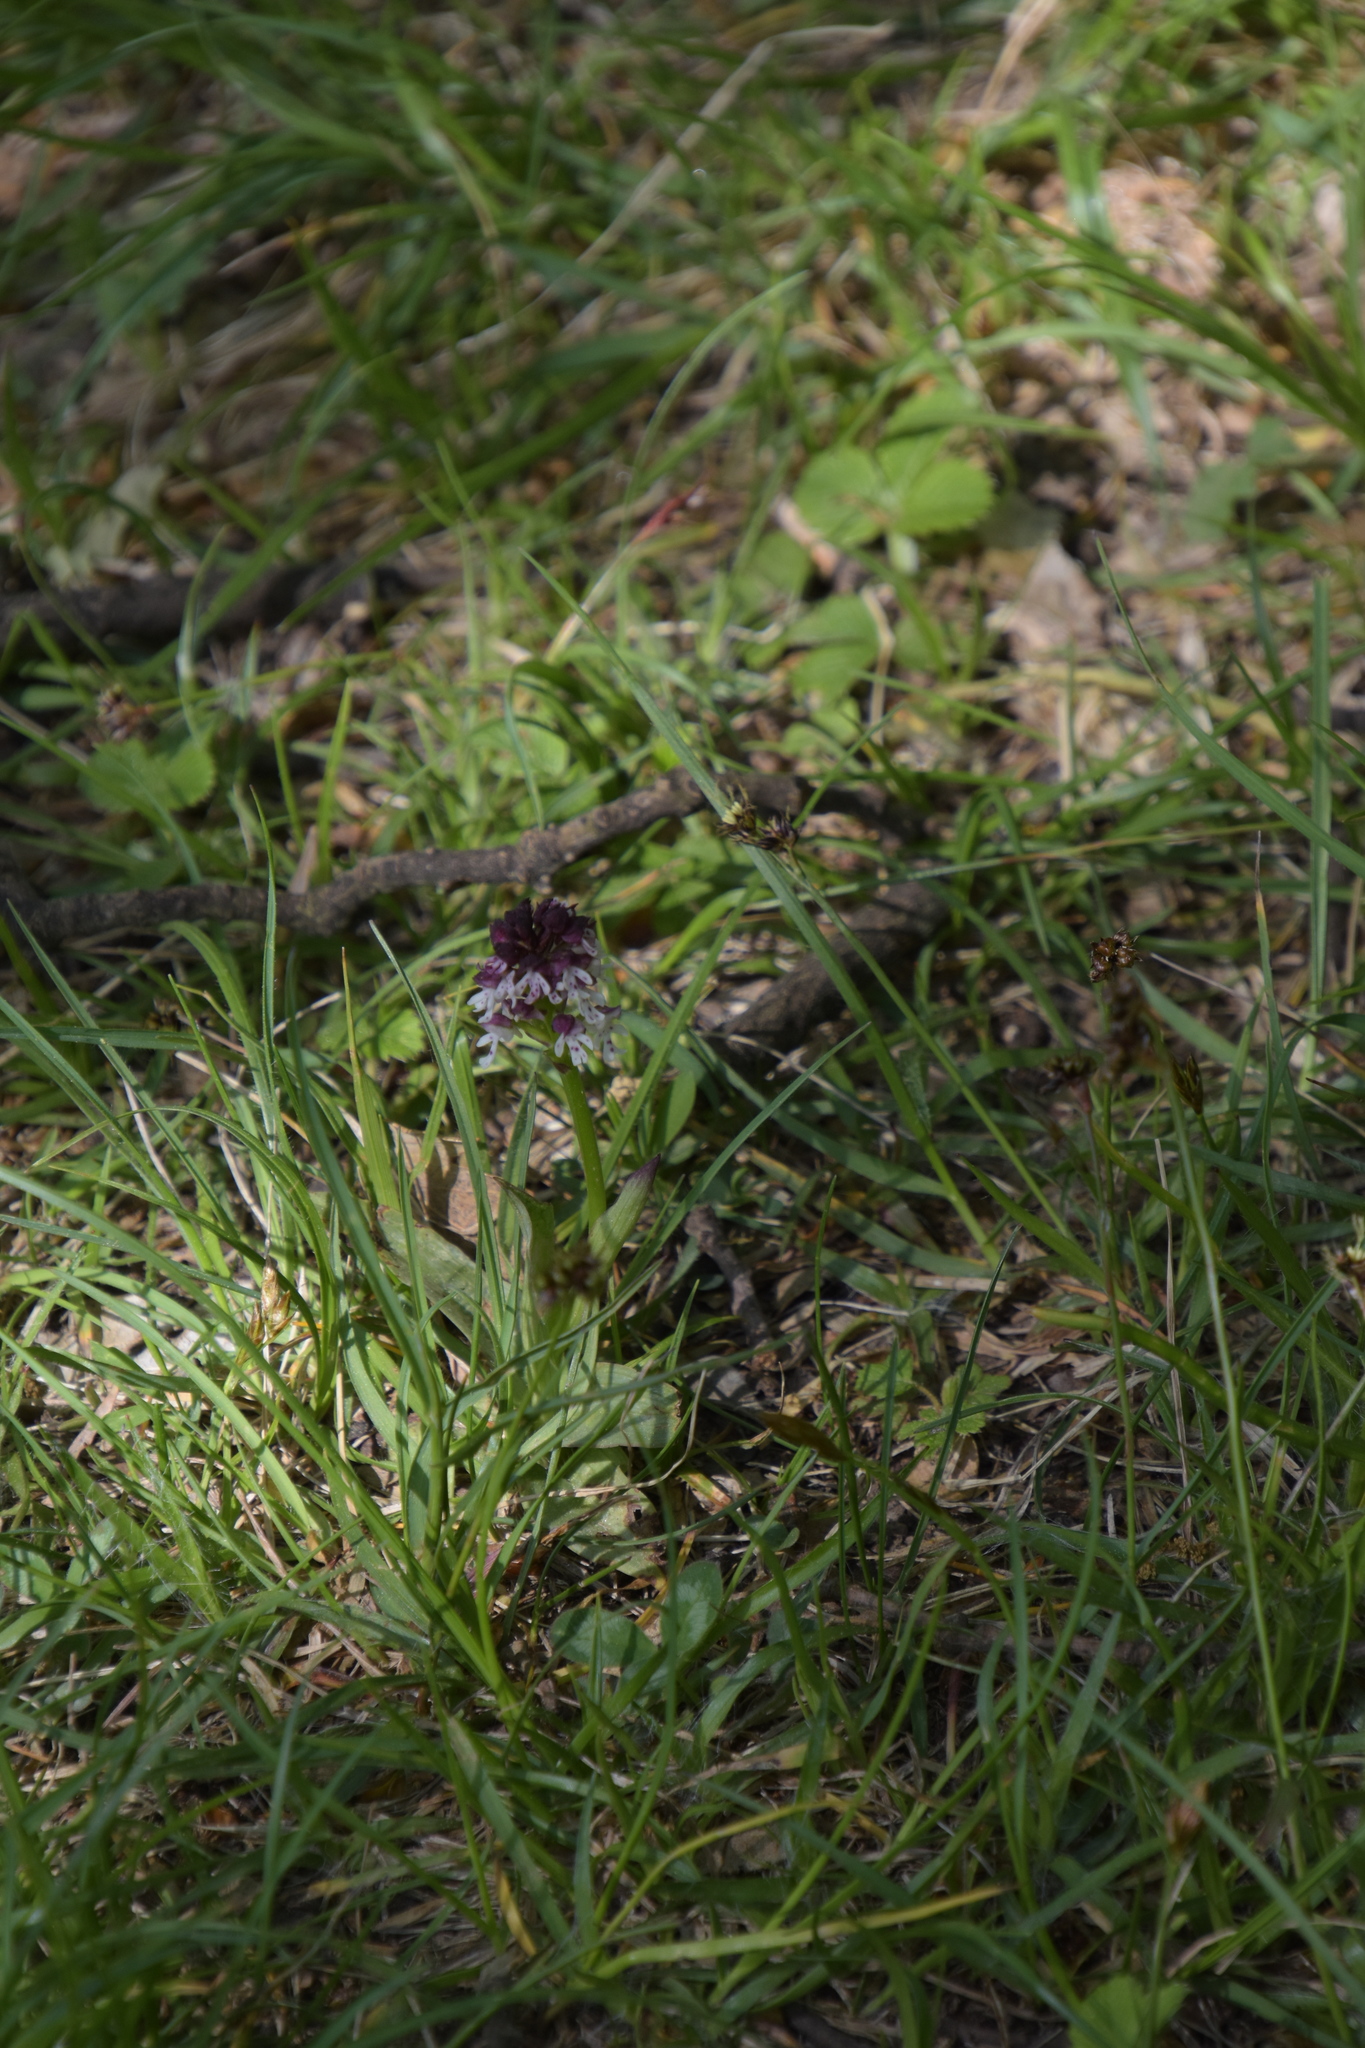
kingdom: Plantae
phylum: Tracheophyta
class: Liliopsida
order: Asparagales
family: Orchidaceae
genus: Neotinea
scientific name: Neotinea ustulata
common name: Burnt orchid
